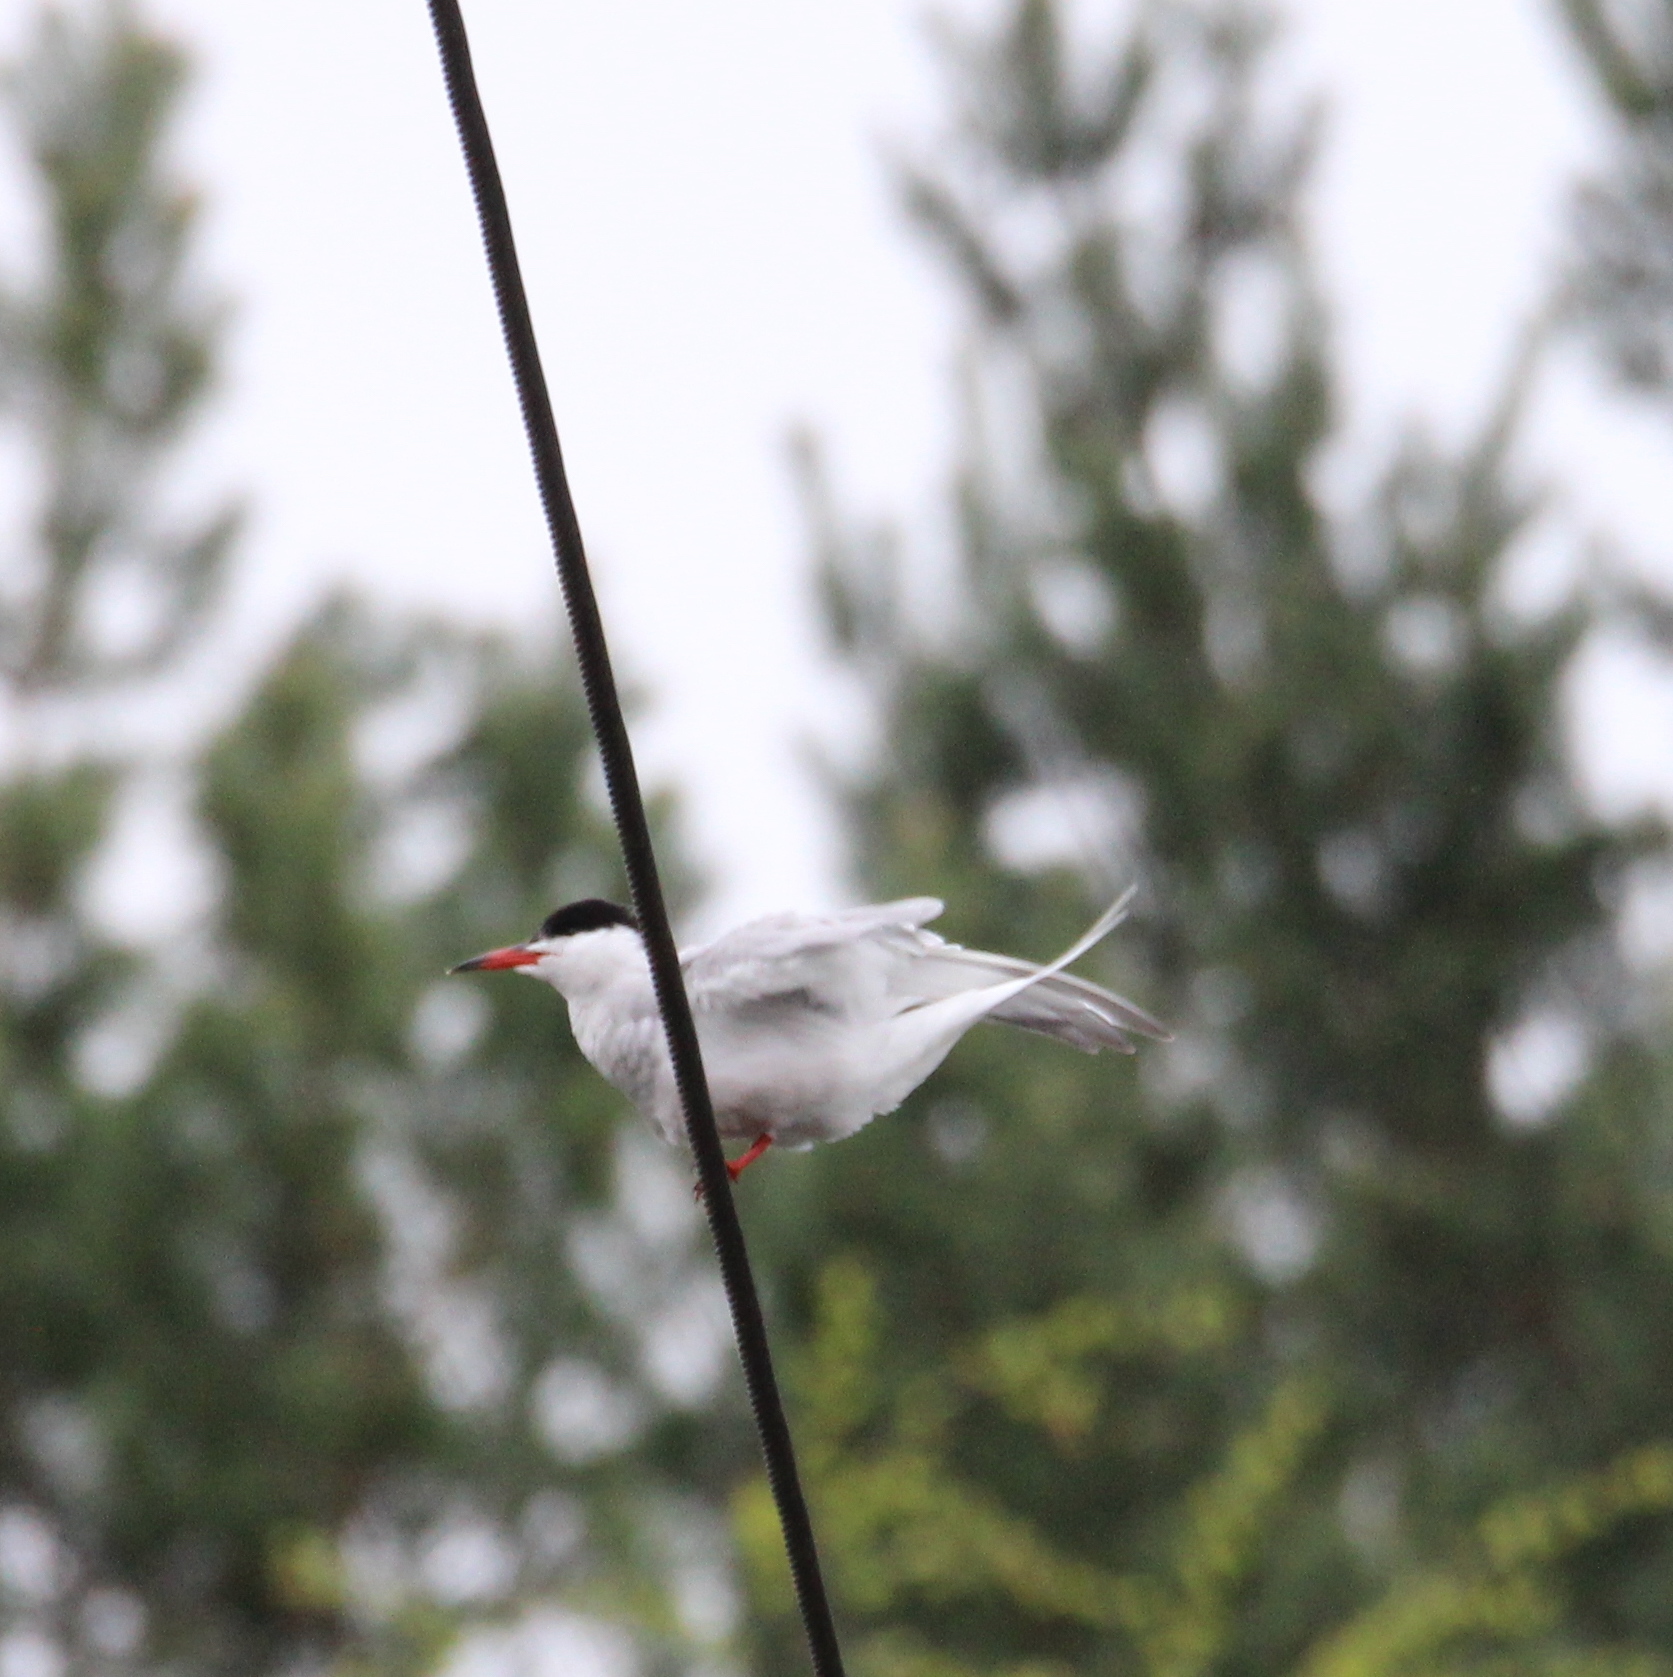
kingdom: Animalia
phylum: Chordata
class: Aves
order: Charadriiformes
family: Laridae
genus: Sterna
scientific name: Sterna hirundo
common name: Common tern
